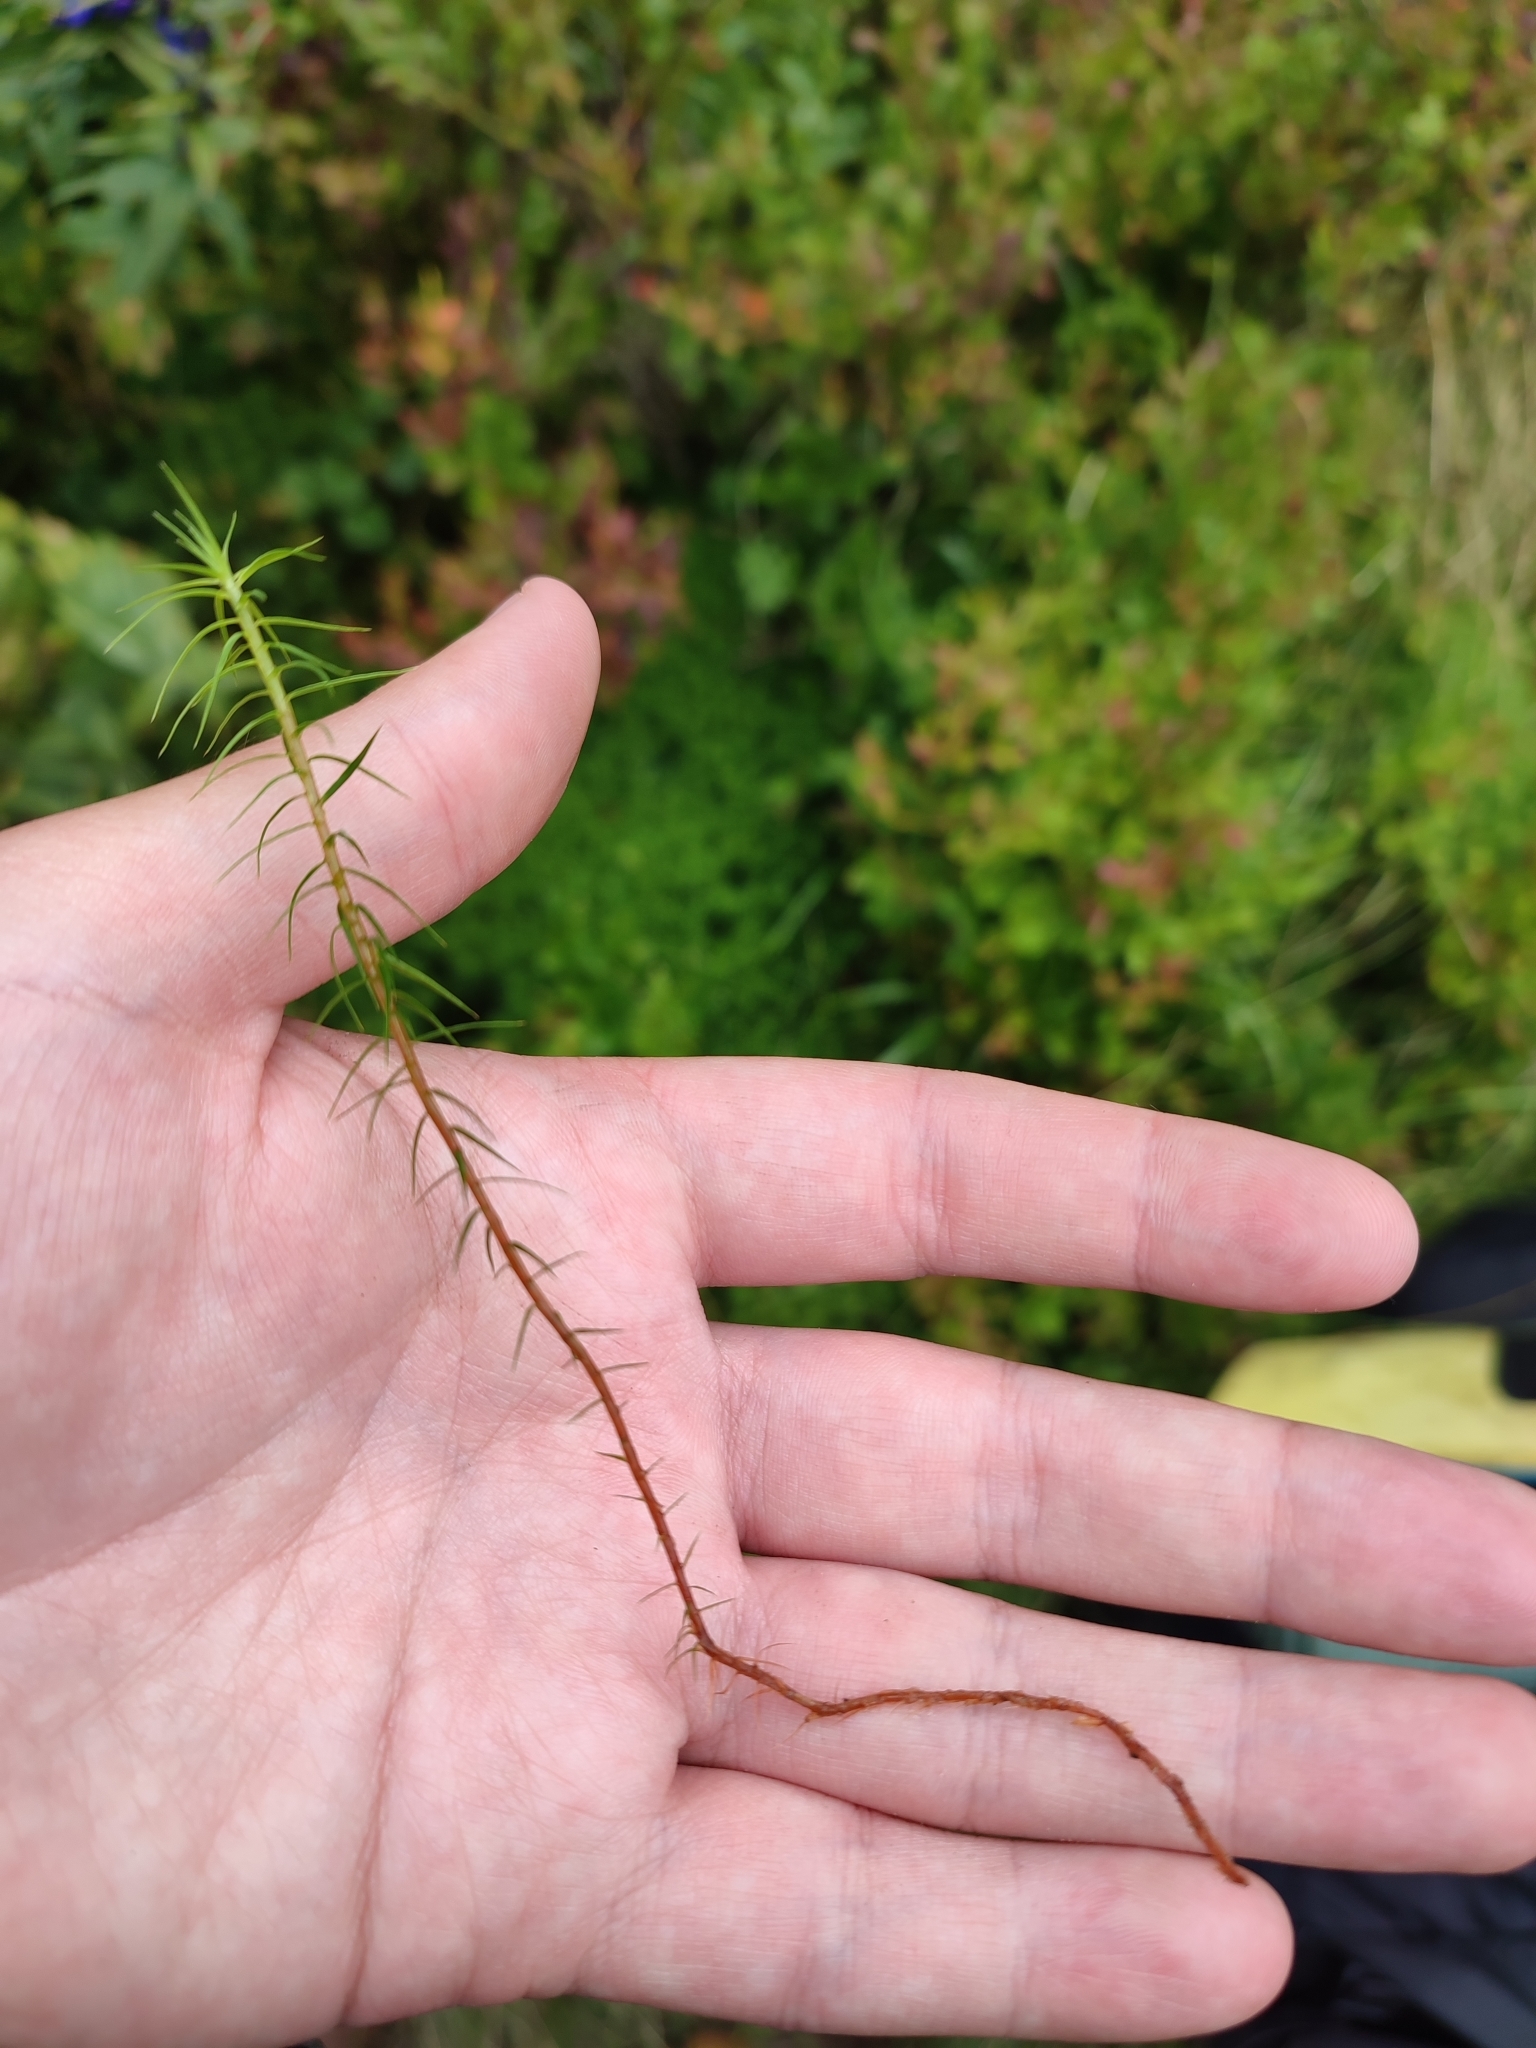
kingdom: Plantae
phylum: Bryophyta
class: Polytrichopsida
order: Polytrichales
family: Polytrichaceae
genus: Polytrichum
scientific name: Polytrichum commune
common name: Common haircap
